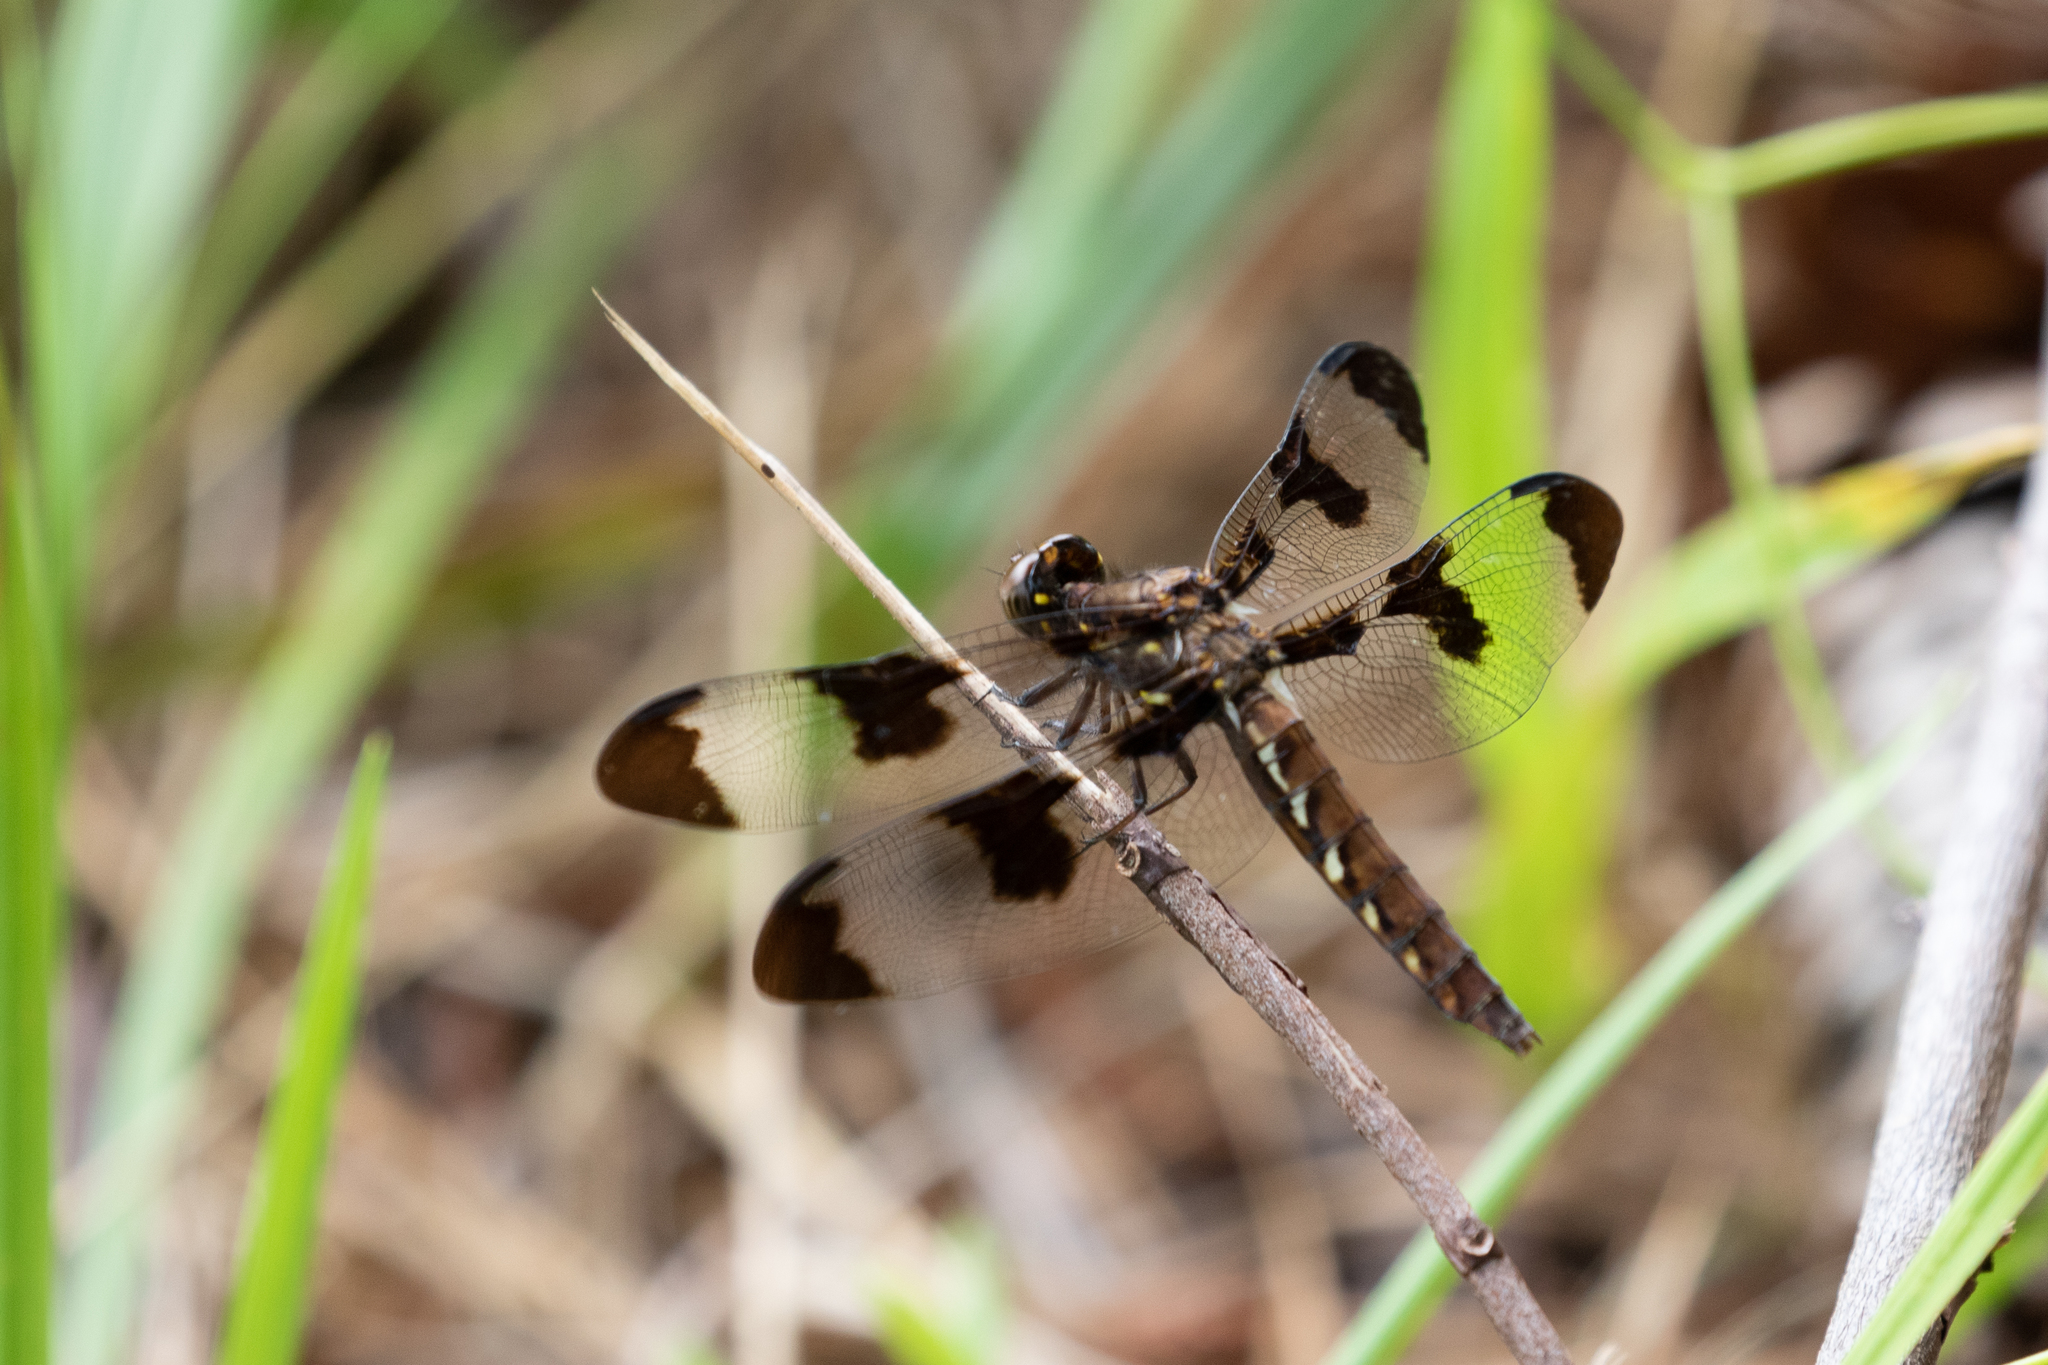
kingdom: Animalia
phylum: Arthropoda
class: Insecta
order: Odonata
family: Libellulidae
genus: Plathemis
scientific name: Plathemis lydia
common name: Common whitetail
